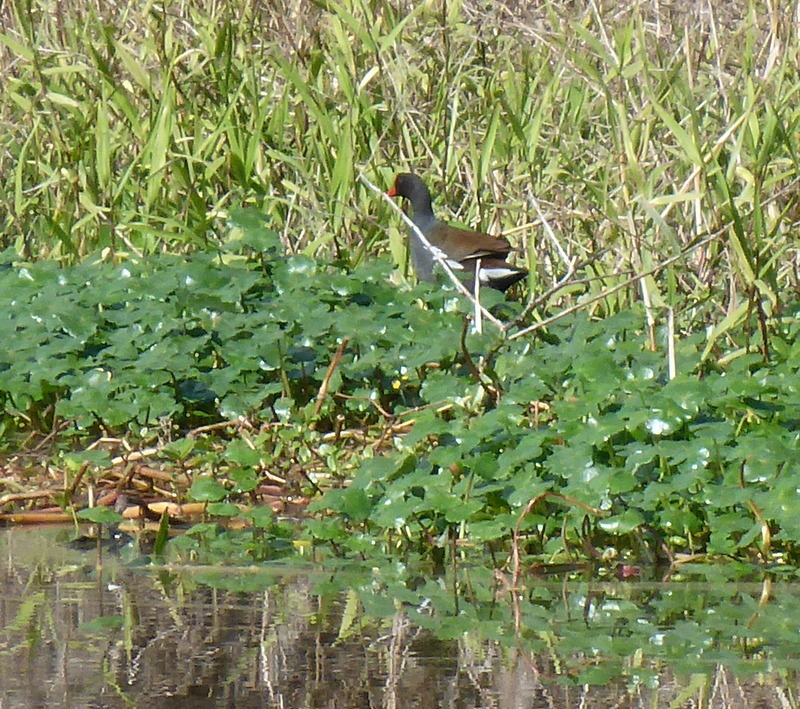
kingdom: Animalia
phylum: Chordata
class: Aves
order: Gruiformes
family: Rallidae
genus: Gallinula
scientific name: Gallinula chloropus
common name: Common moorhen
